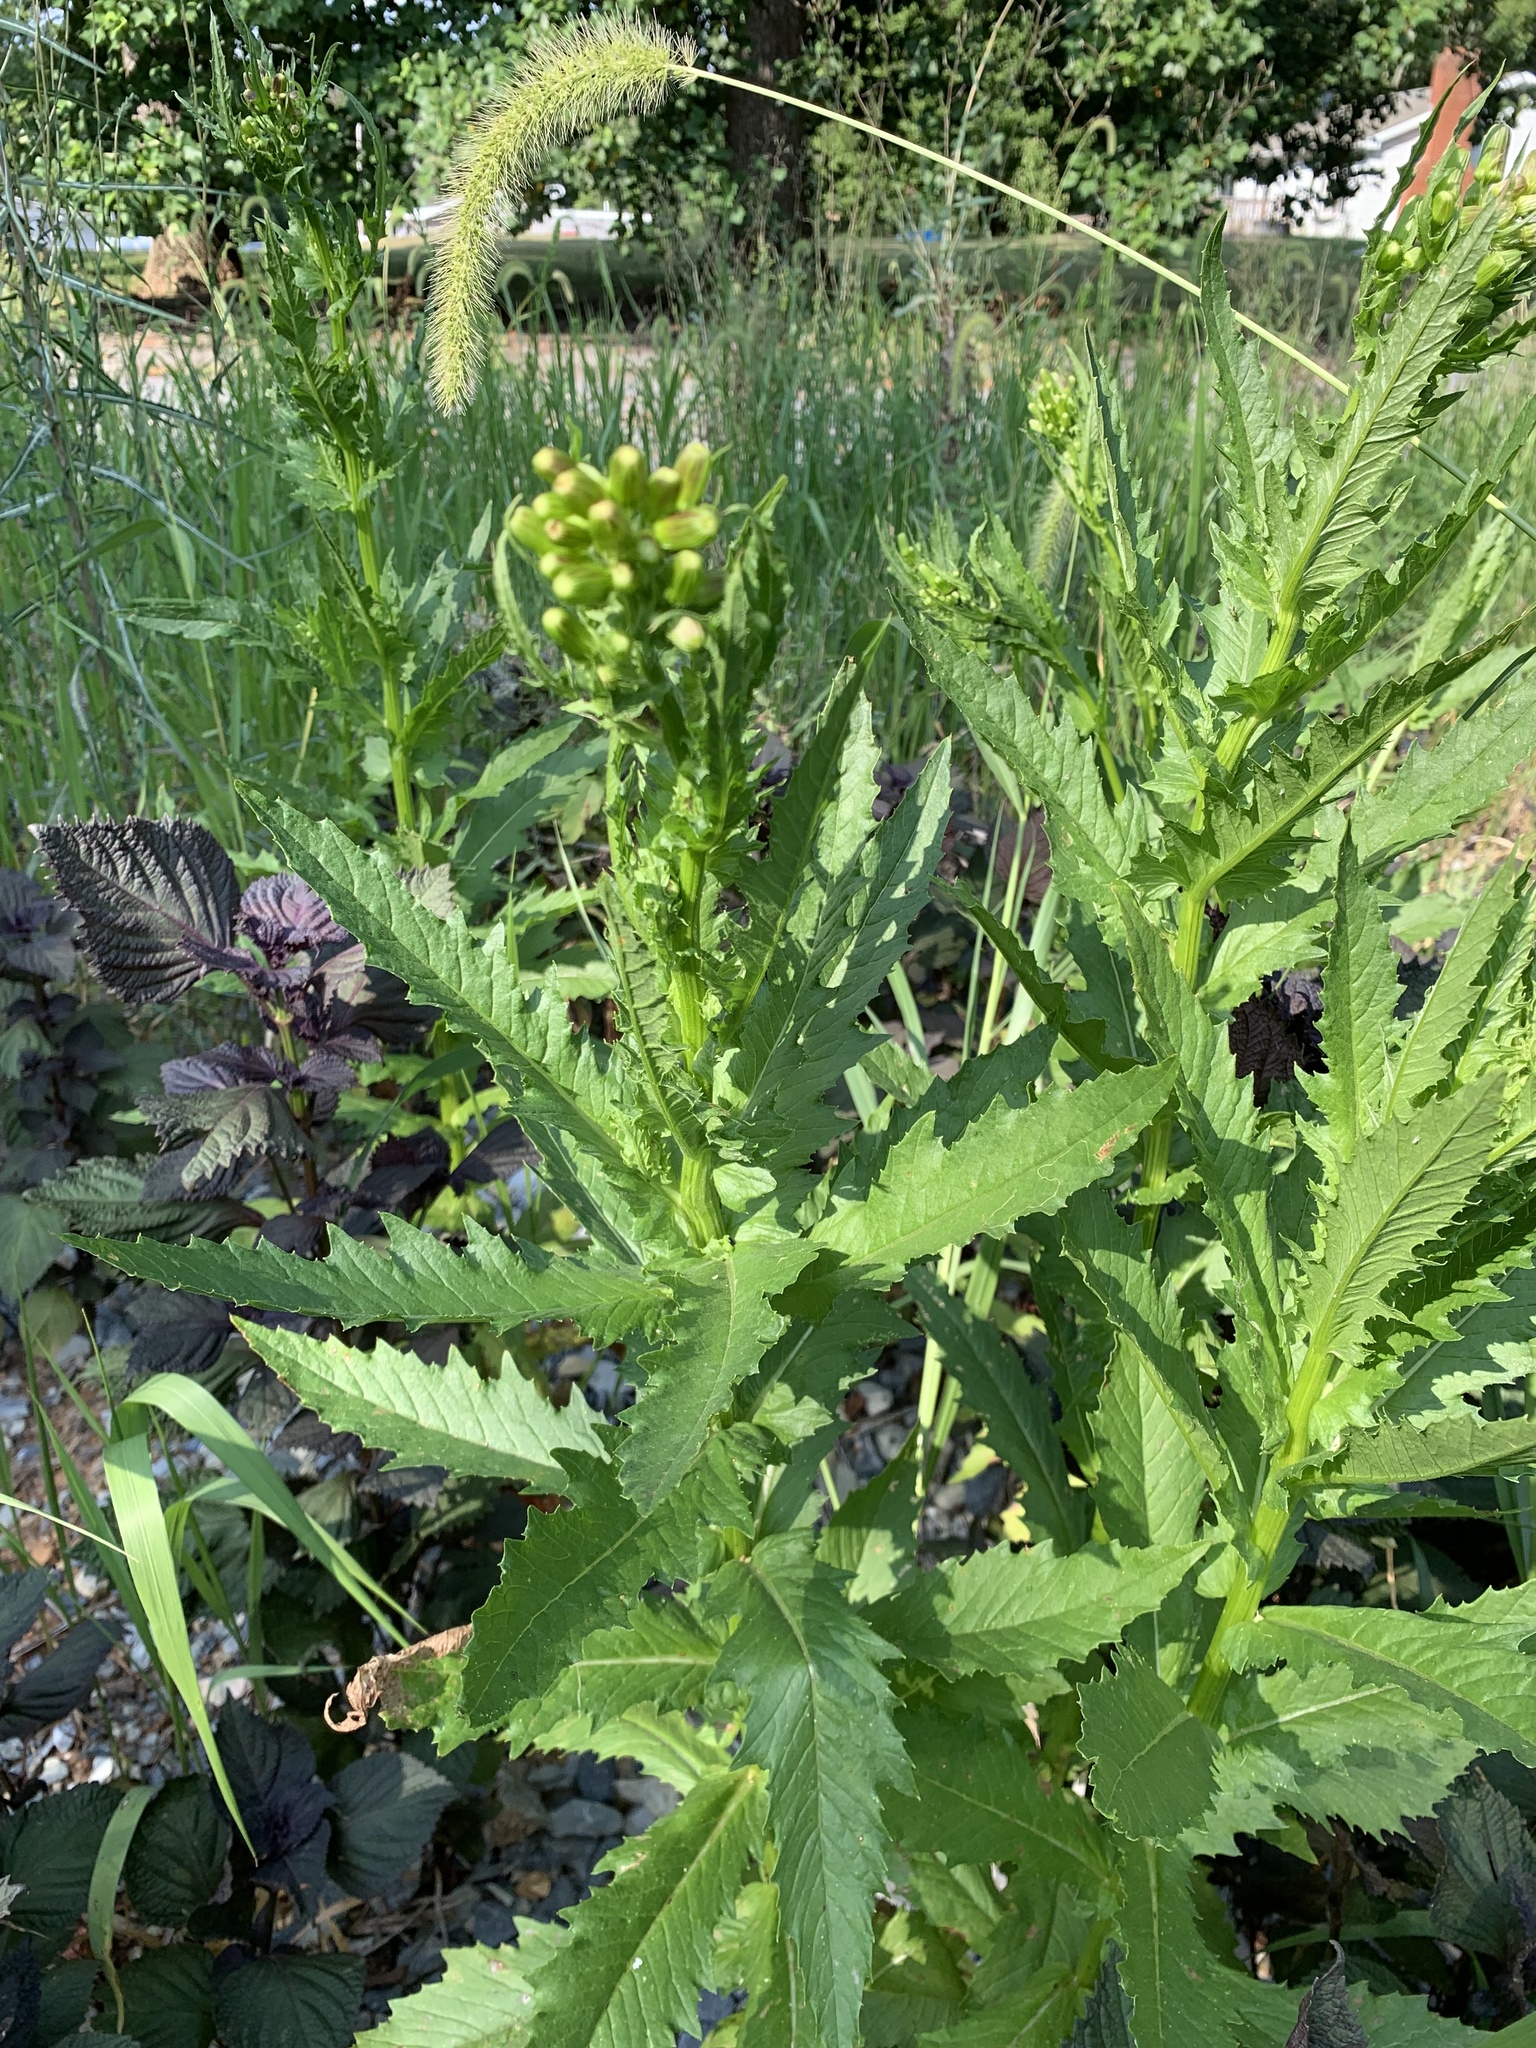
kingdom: Plantae
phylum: Tracheophyta
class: Magnoliopsida
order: Asterales
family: Asteraceae
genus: Erechtites
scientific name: Erechtites hieraciifolius
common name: American burnweed
